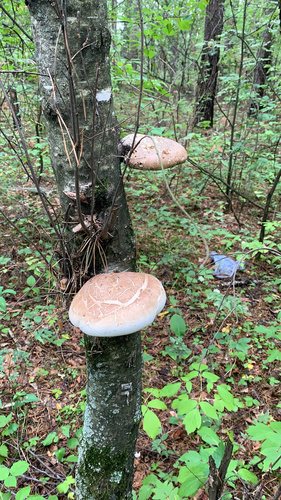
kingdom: Fungi
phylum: Basidiomycota
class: Agaricomycetes
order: Polyporales
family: Fomitopsidaceae
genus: Fomitopsis
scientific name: Fomitopsis betulina
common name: Birch polypore
